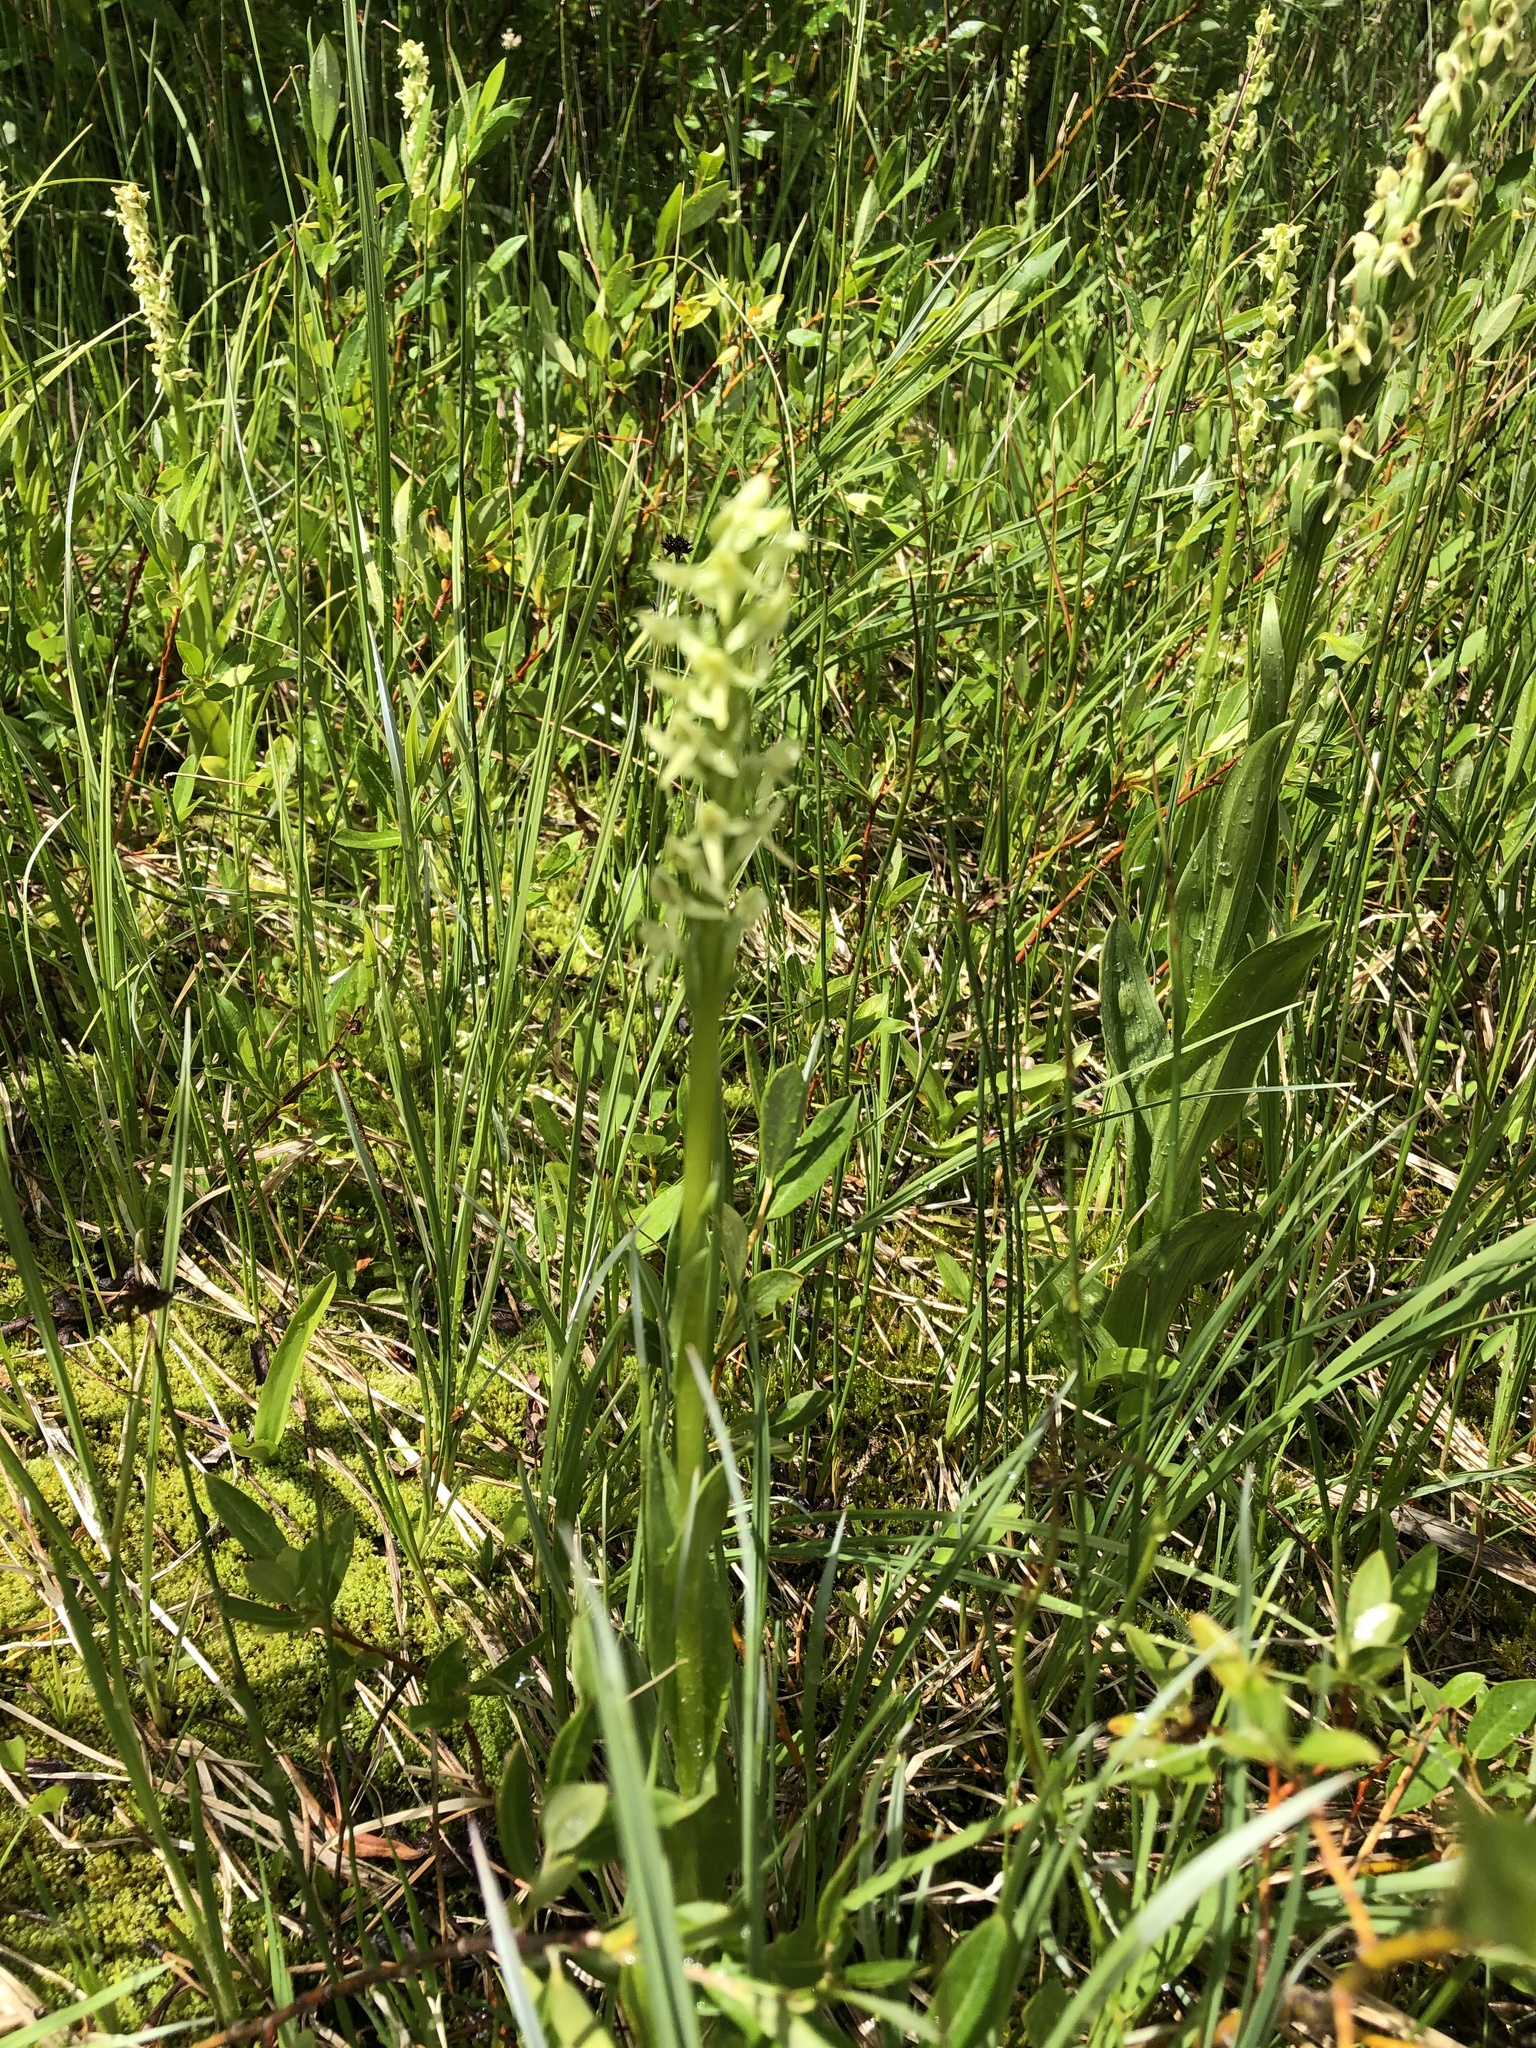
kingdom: Plantae
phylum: Tracheophyta
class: Liliopsida
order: Asparagales
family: Orchidaceae
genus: Platanthera
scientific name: Platanthera huronensis
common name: Fragrant green orchid
